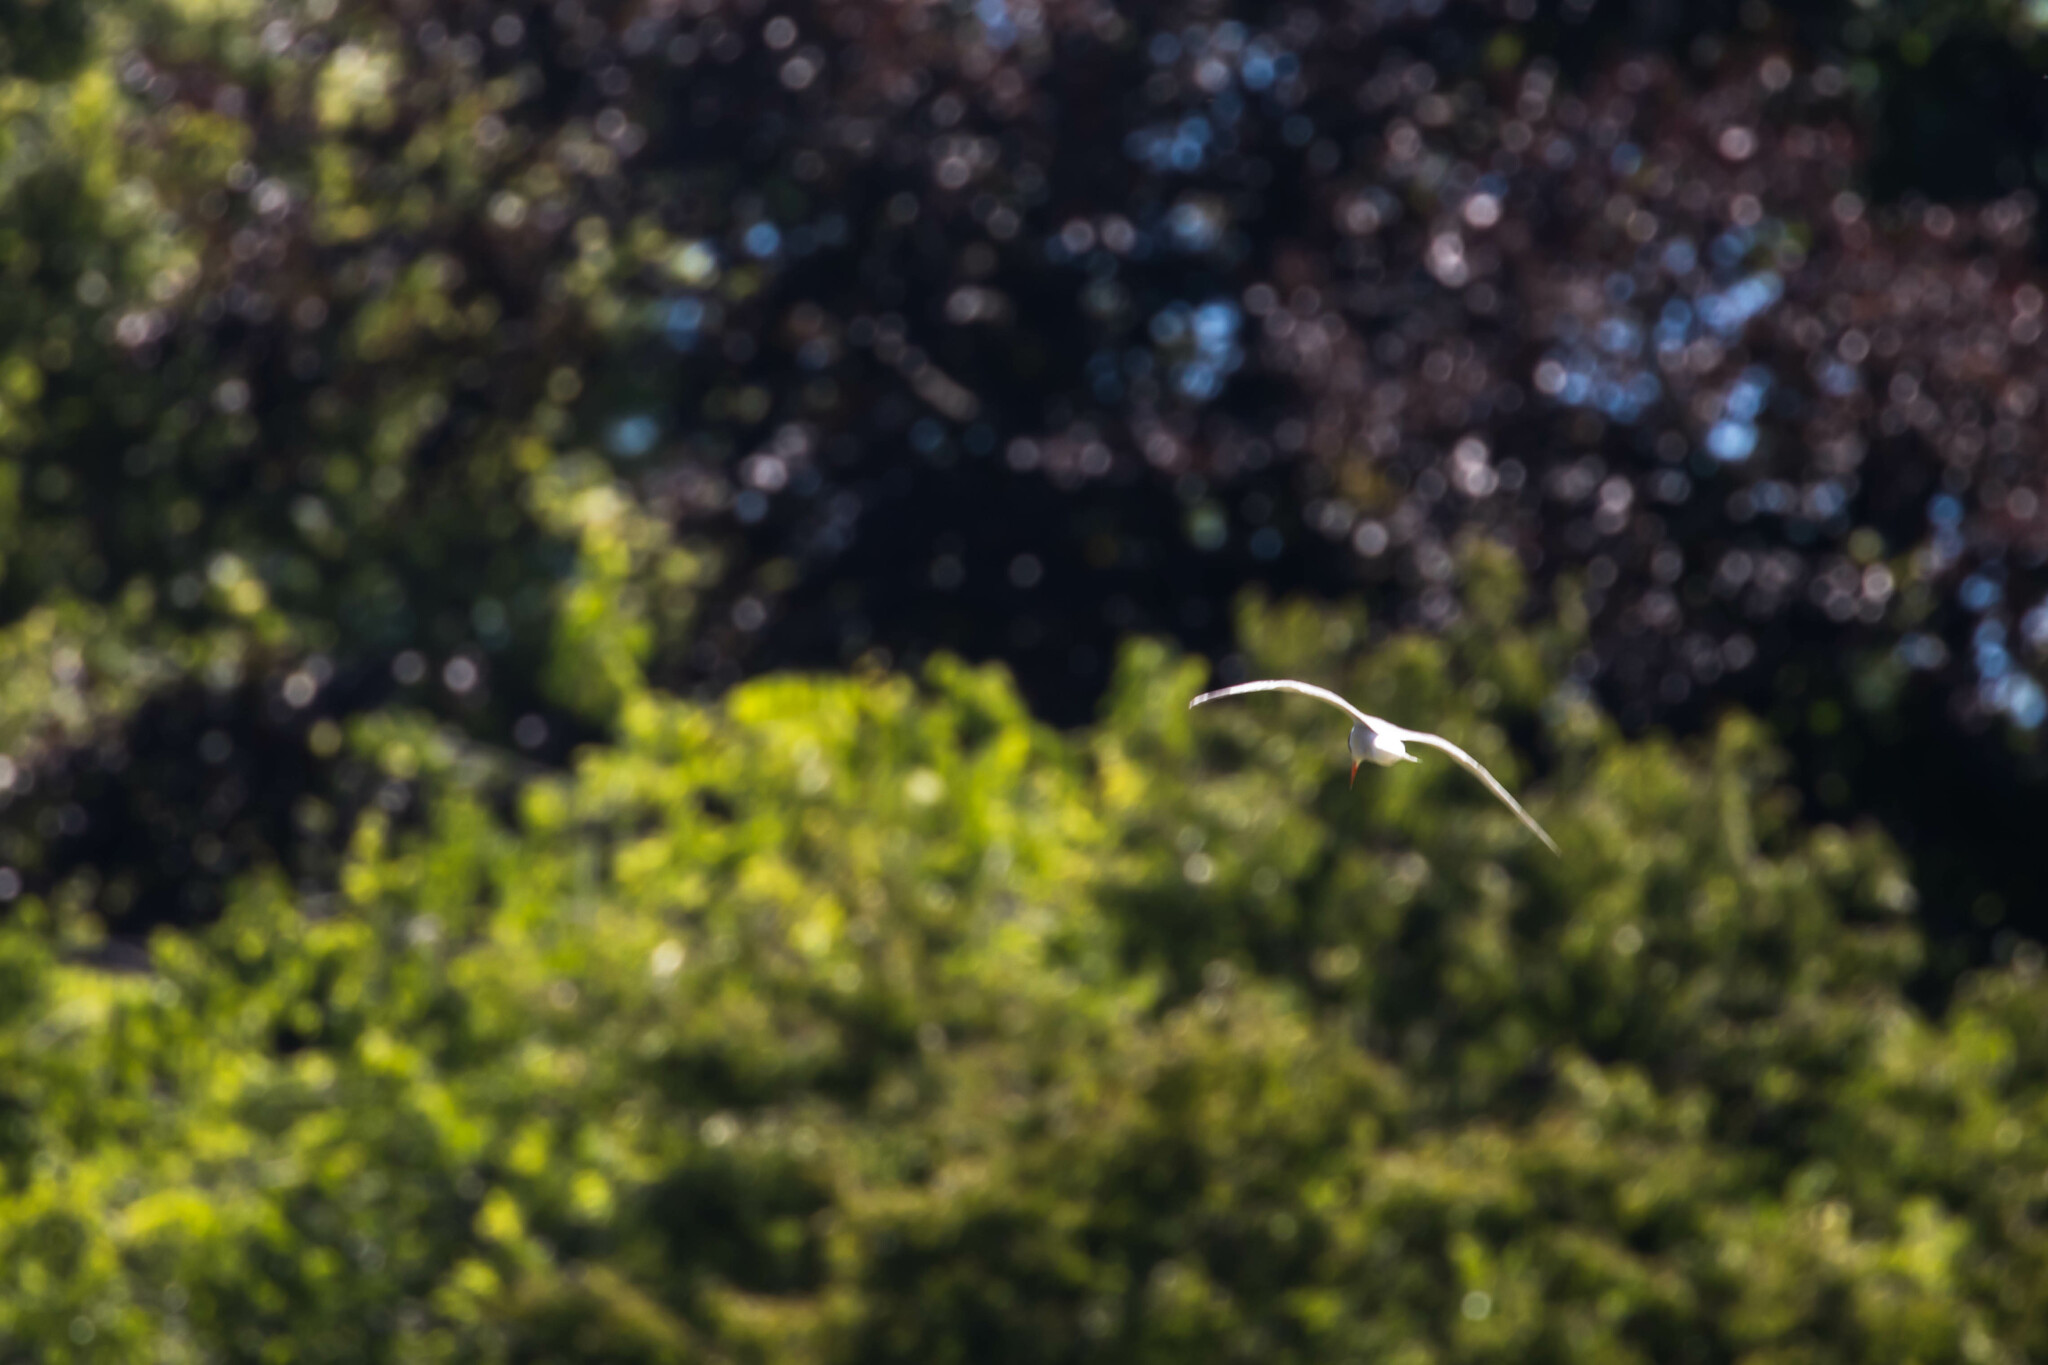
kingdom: Animalia
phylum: Chordata
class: Aves
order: Charadriiformes
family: Laridae
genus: Sterna
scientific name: Sterna hirundo
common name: Common tern
